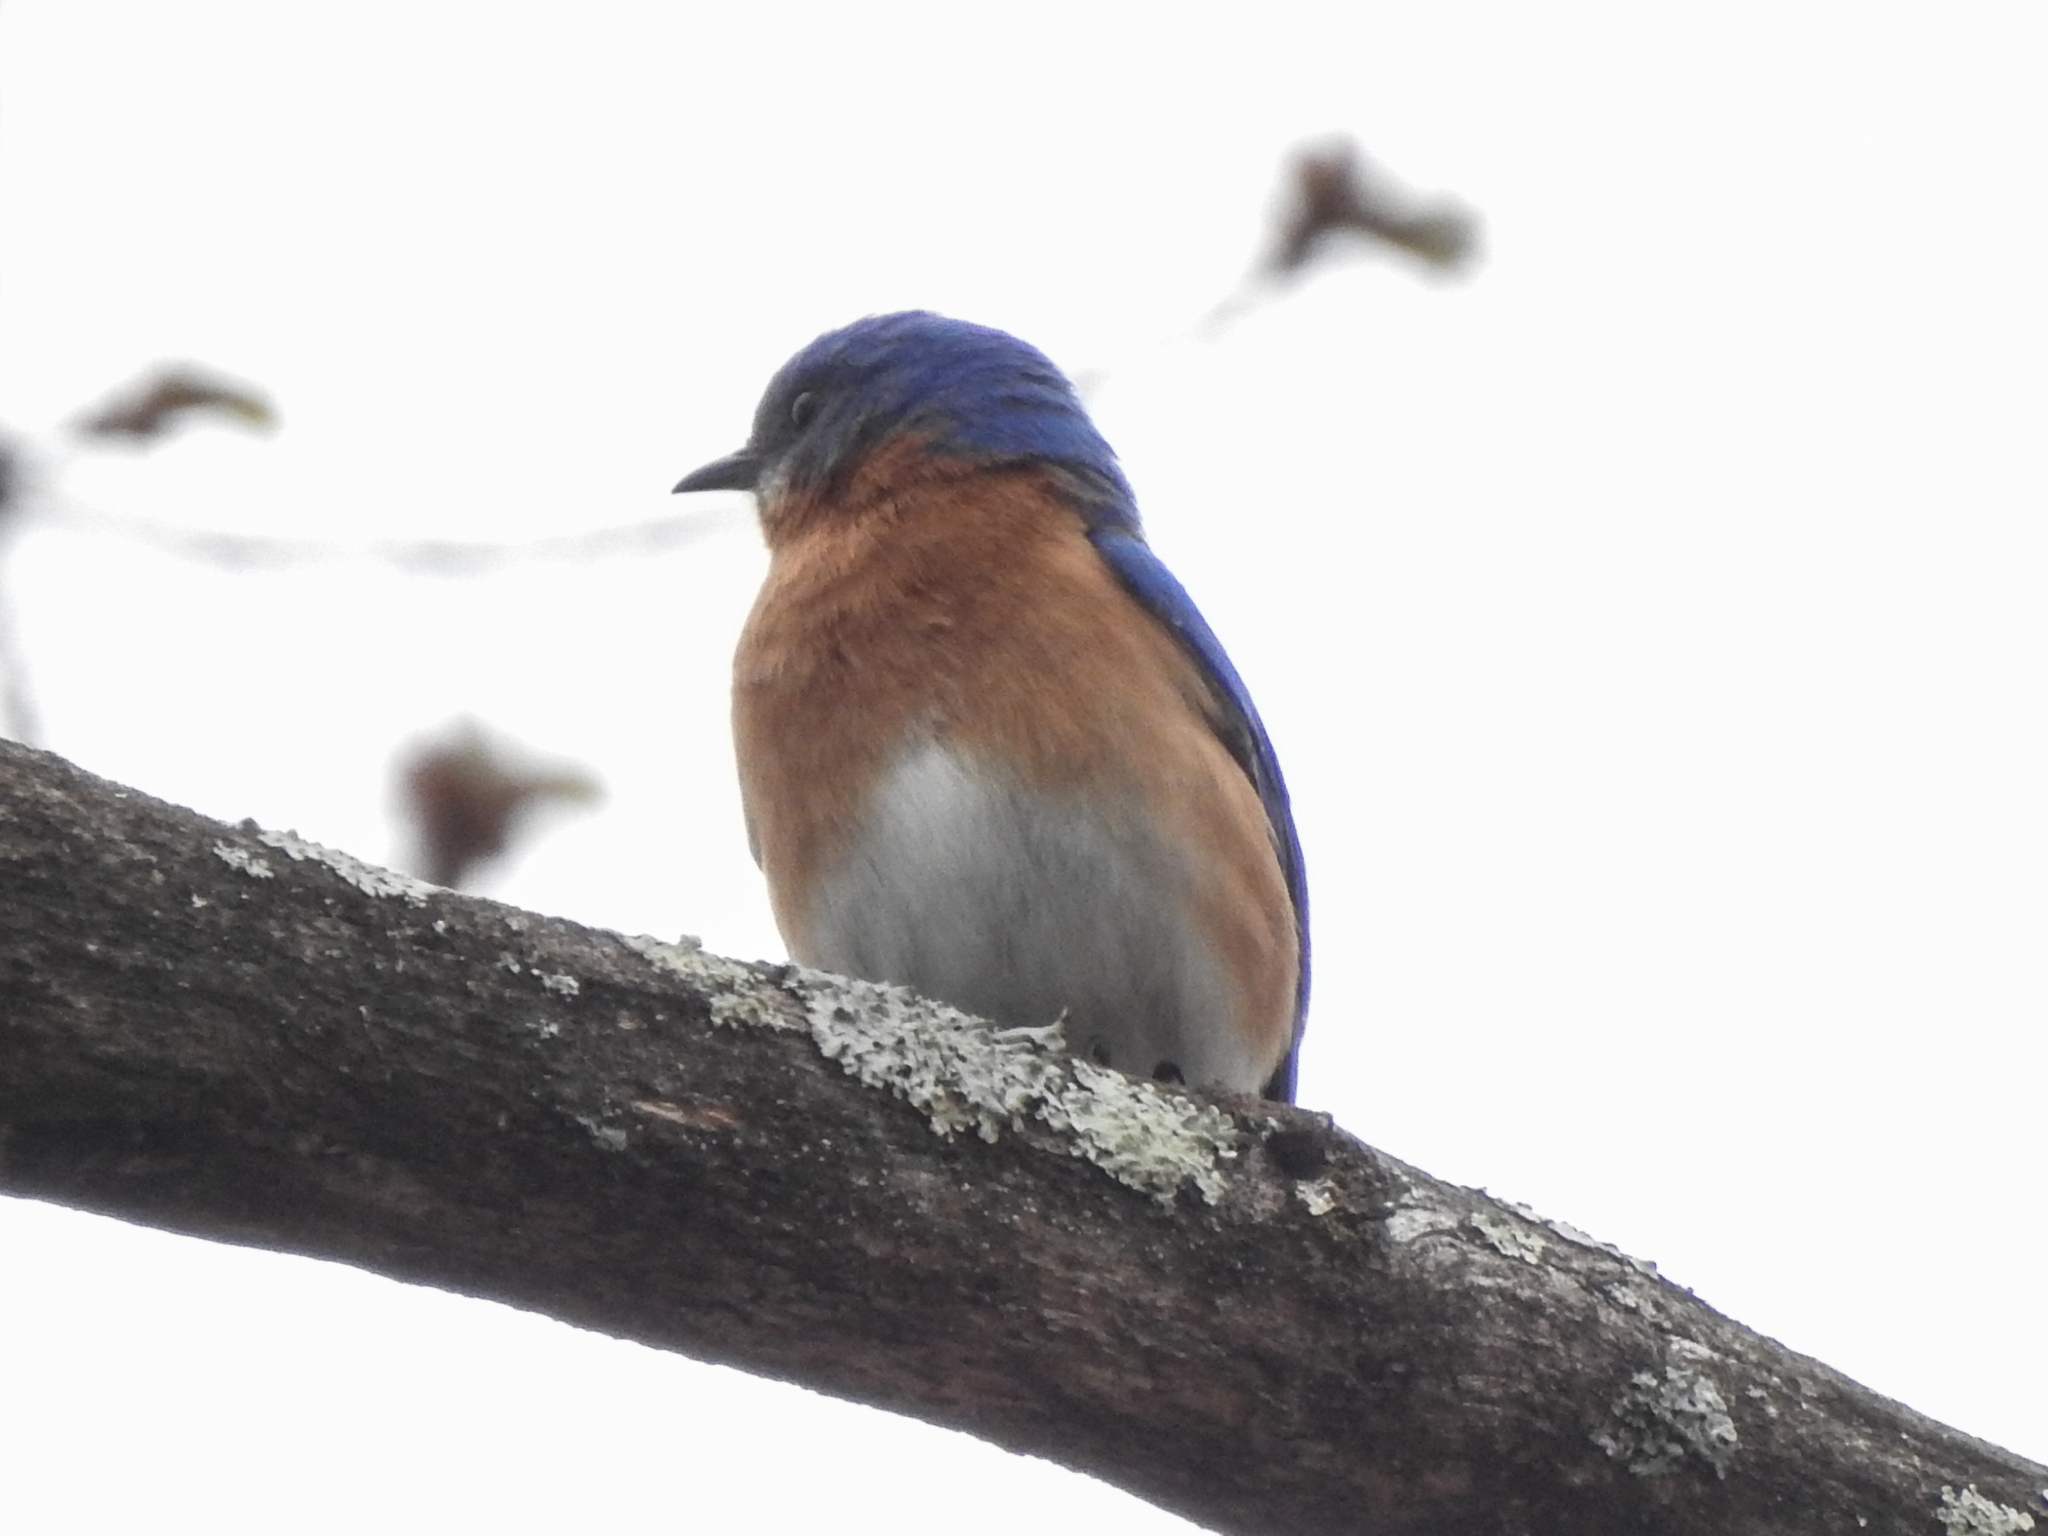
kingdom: Animalia
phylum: Chordata
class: Aves
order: Passeriformes
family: Turdidae
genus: Sialia
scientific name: Sialia sialis
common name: Eastern bluebird
